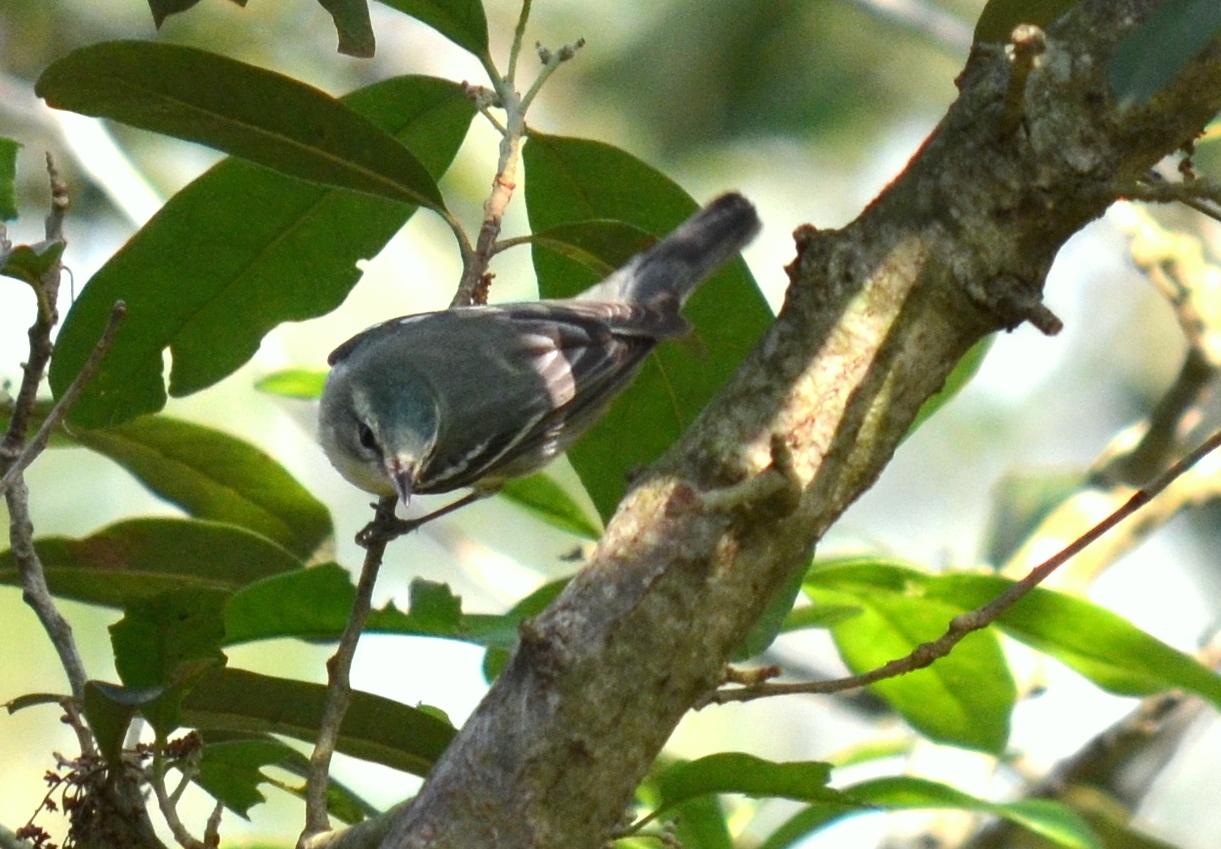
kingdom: Animalia
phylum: Chordata
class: Aves
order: Passeriformes
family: Parulidae
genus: Setophaga
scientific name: Setophaga cerulea
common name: Cerulean warbler
